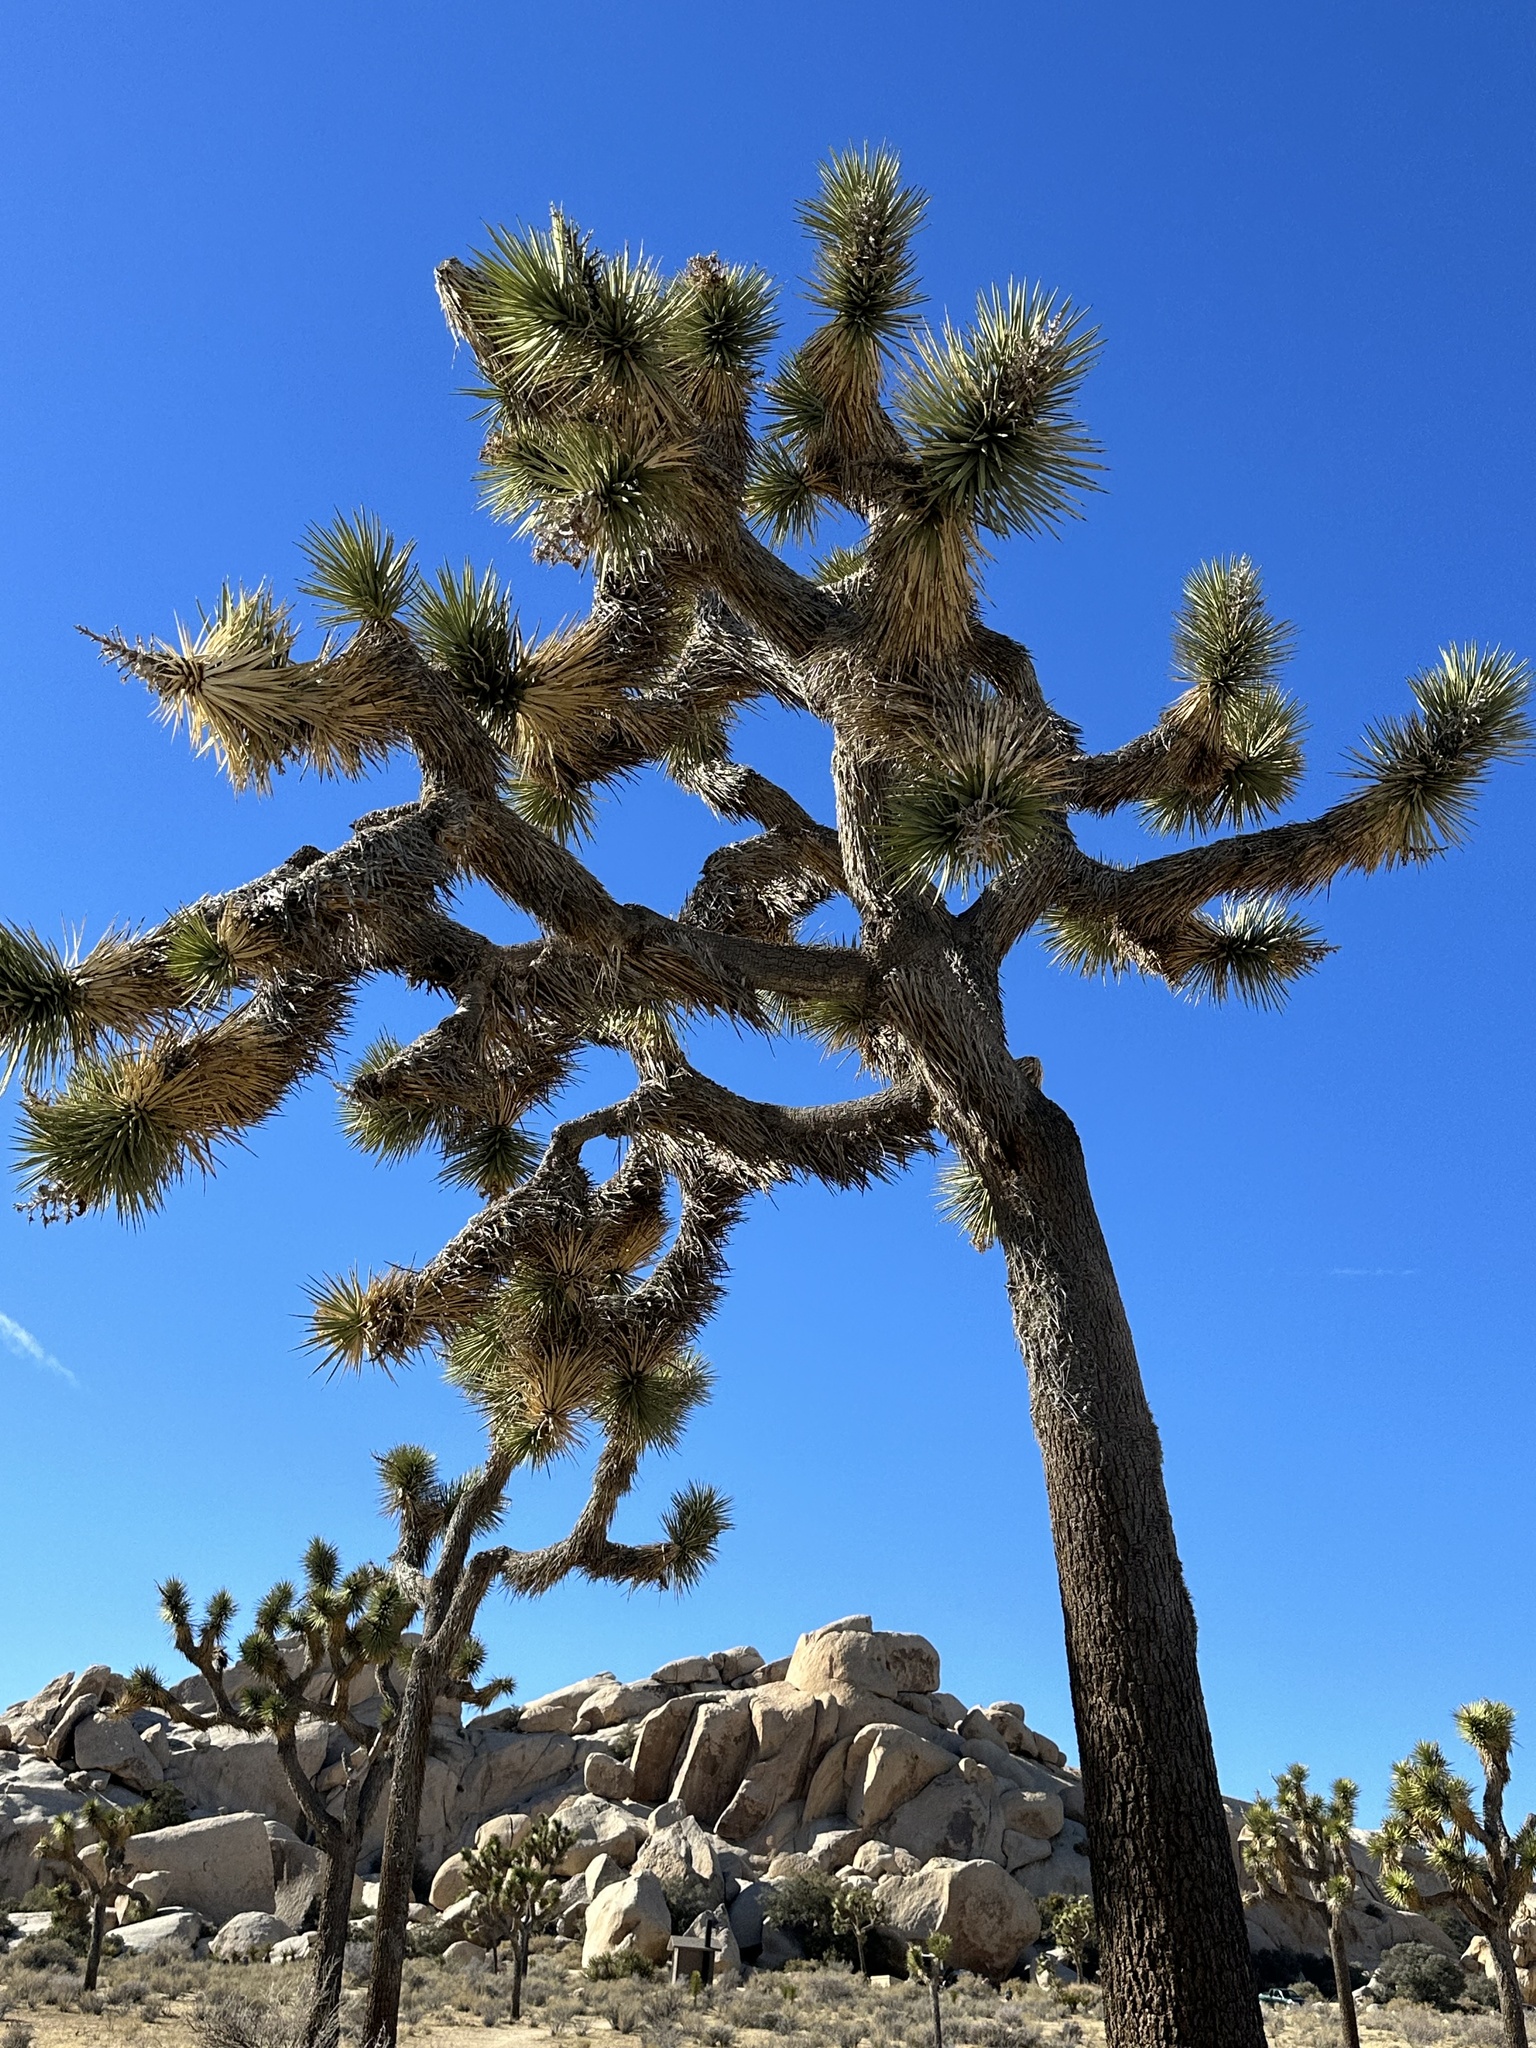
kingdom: Plantae
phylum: Tracheophyta
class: Liliopsida
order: Asparagales
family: Asparagaceae
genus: Yucca
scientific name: Yucca brevifolia
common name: Joshua tree
